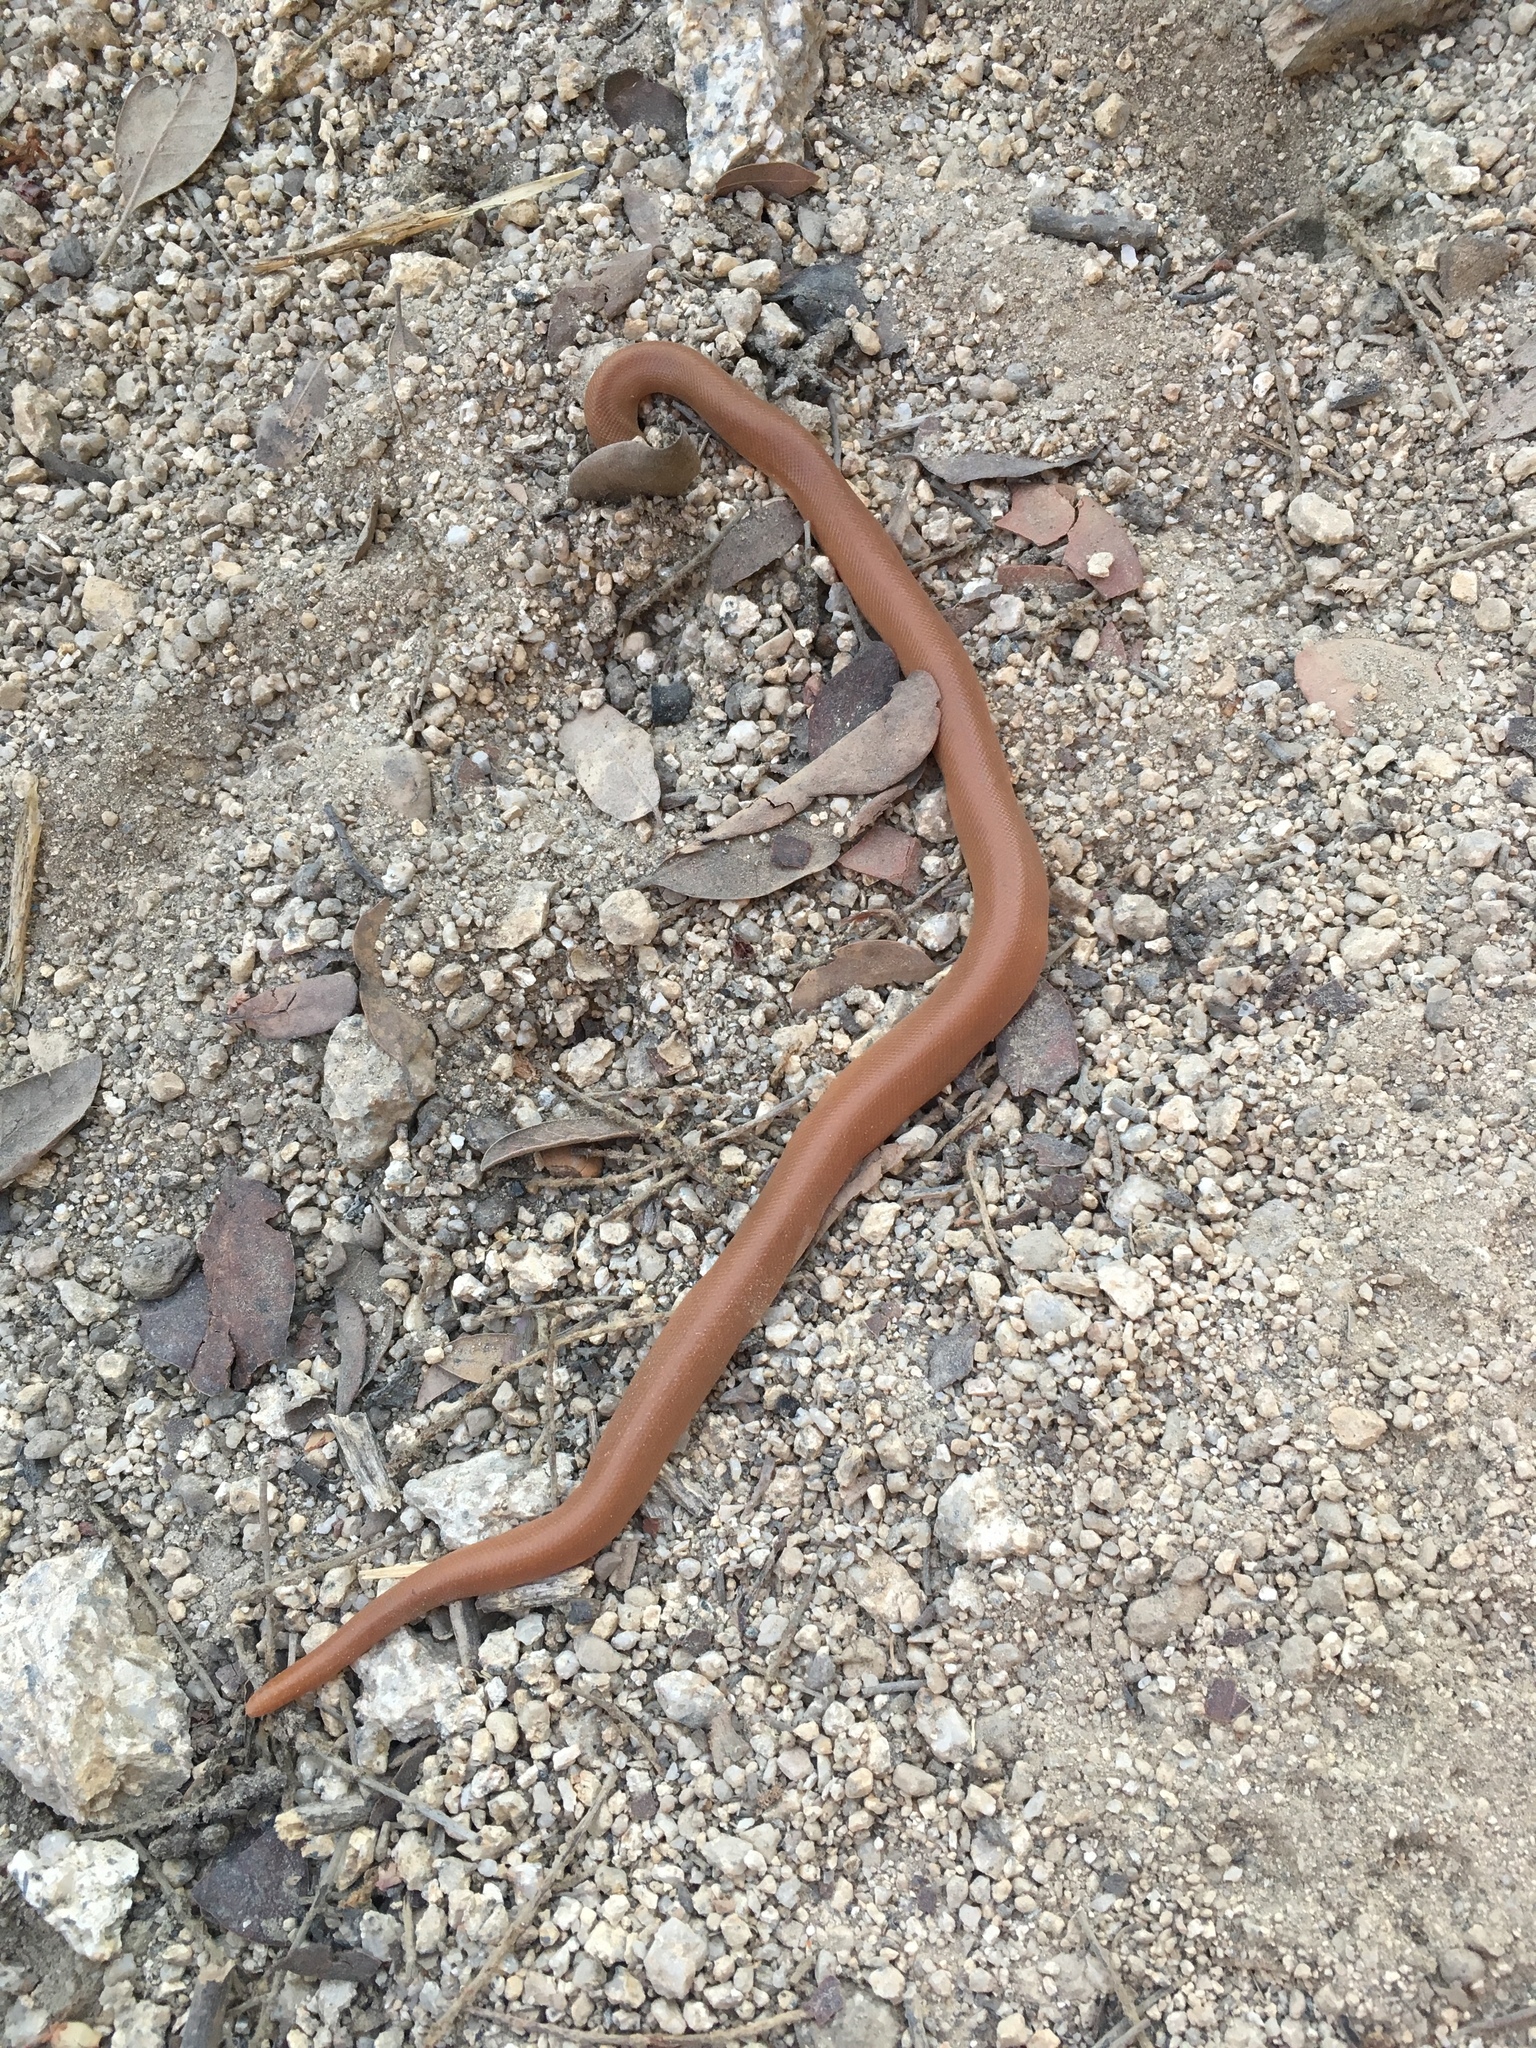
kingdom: Animalia
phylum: Chordata
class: Squamata
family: Boidae
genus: Charina
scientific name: Charina bottae
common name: Northern rubber boa
